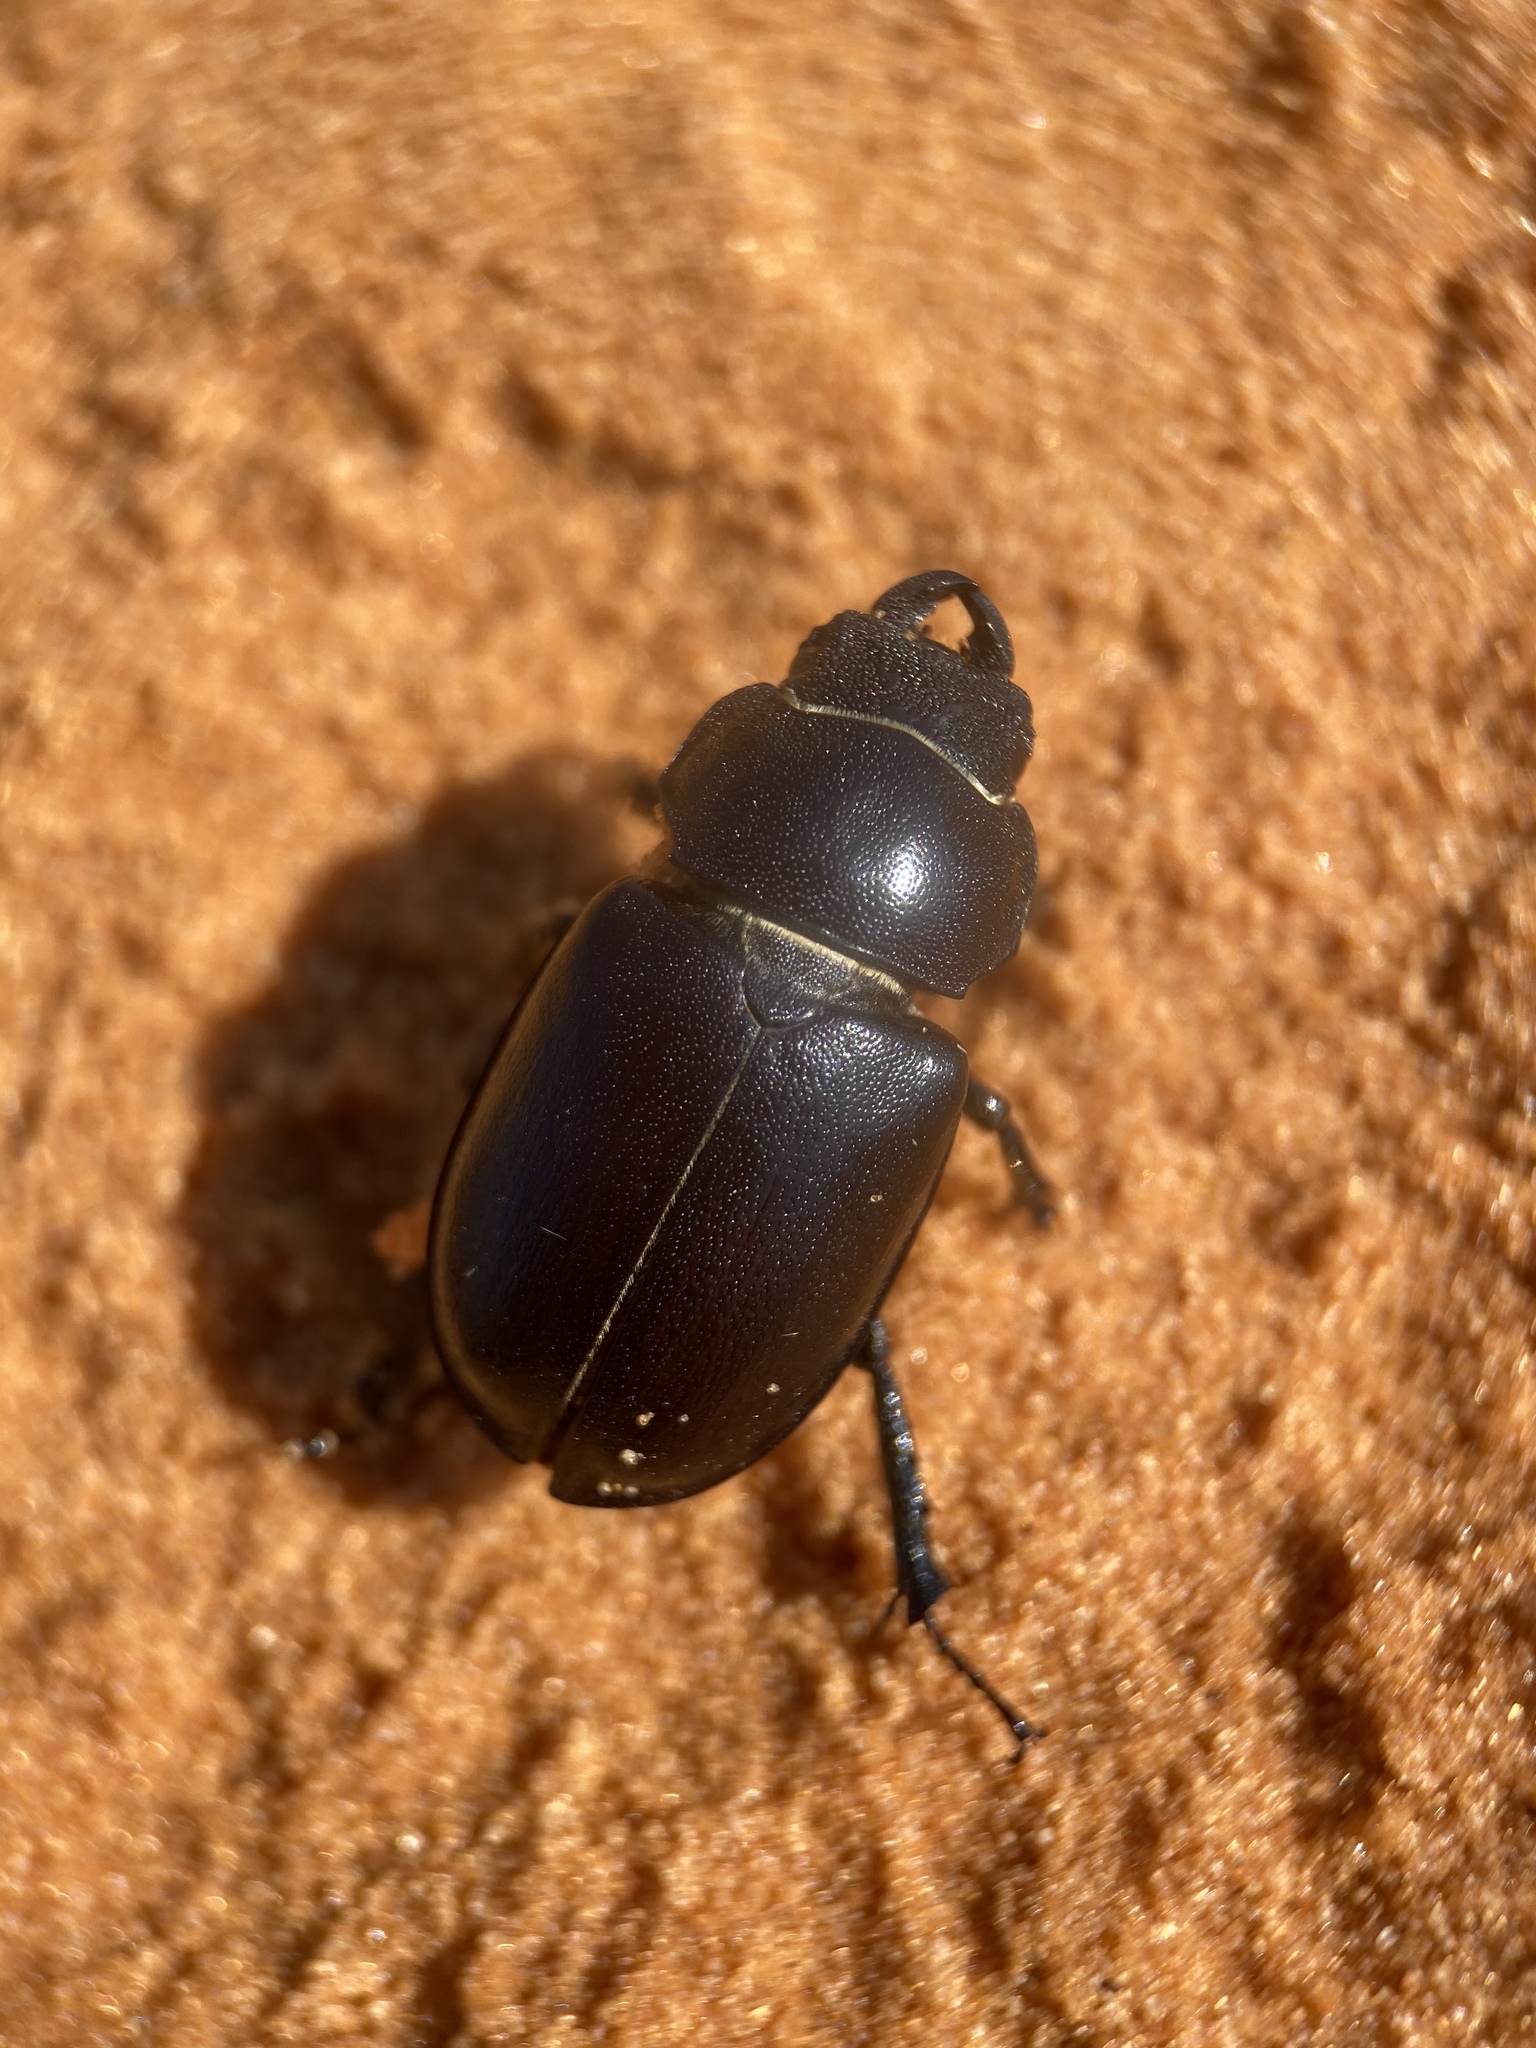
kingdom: Animalia
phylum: Arthropoda
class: Insecta
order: Coleoptera
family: Lucanidae
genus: Lucanus
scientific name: Lucanus mazama
